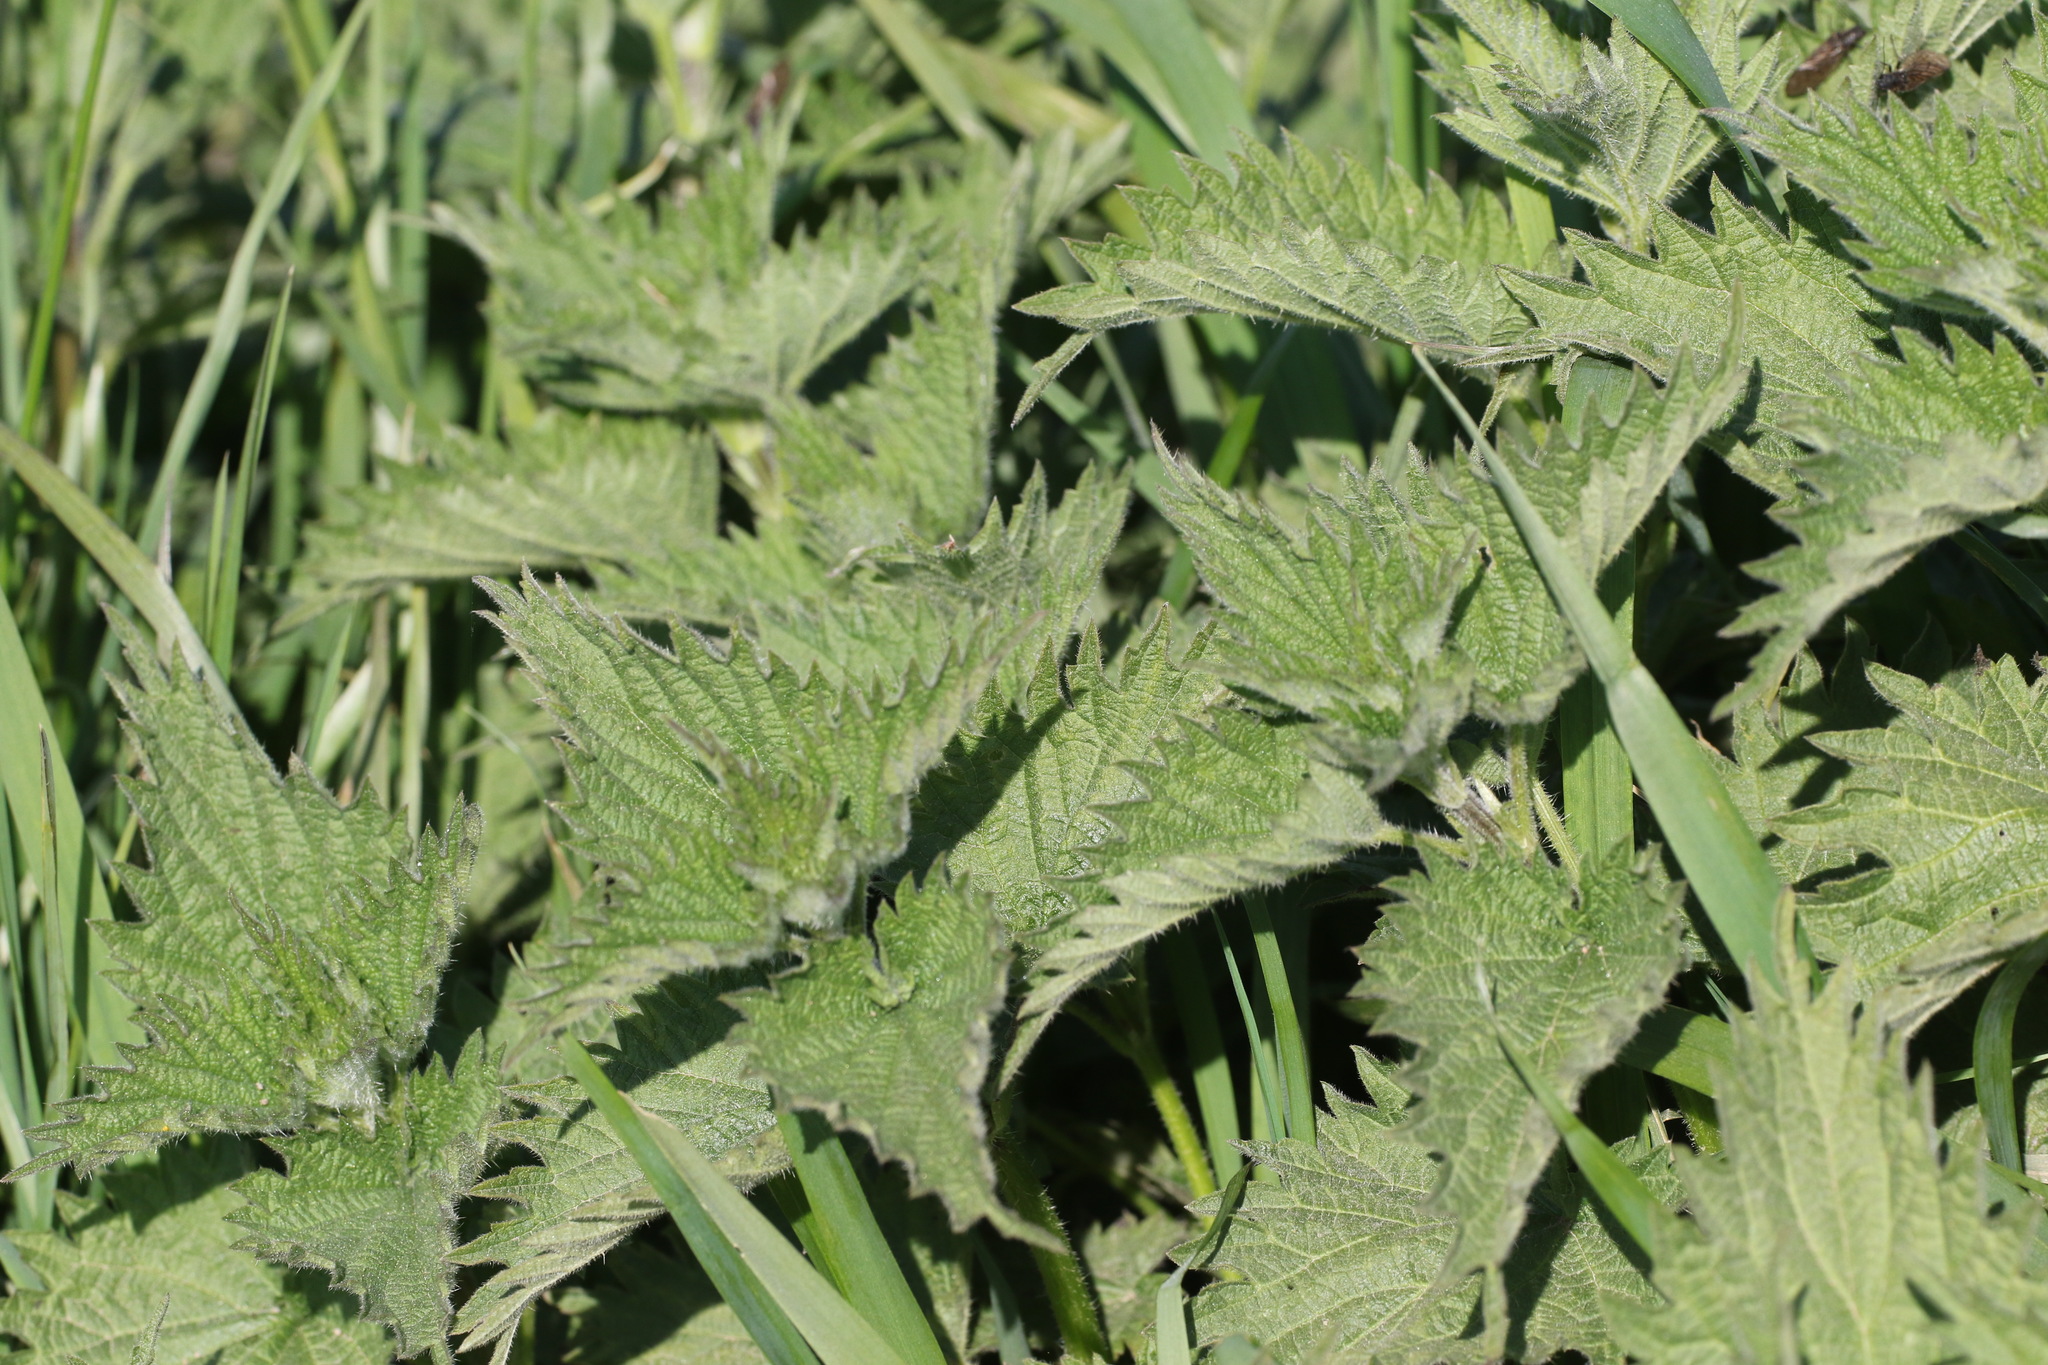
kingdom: Plantae
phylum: Tracheophyta
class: Magnoliopsida
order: Rosales
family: Urticaceae
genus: Urtica
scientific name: Urtica dioica
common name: Common nettle
